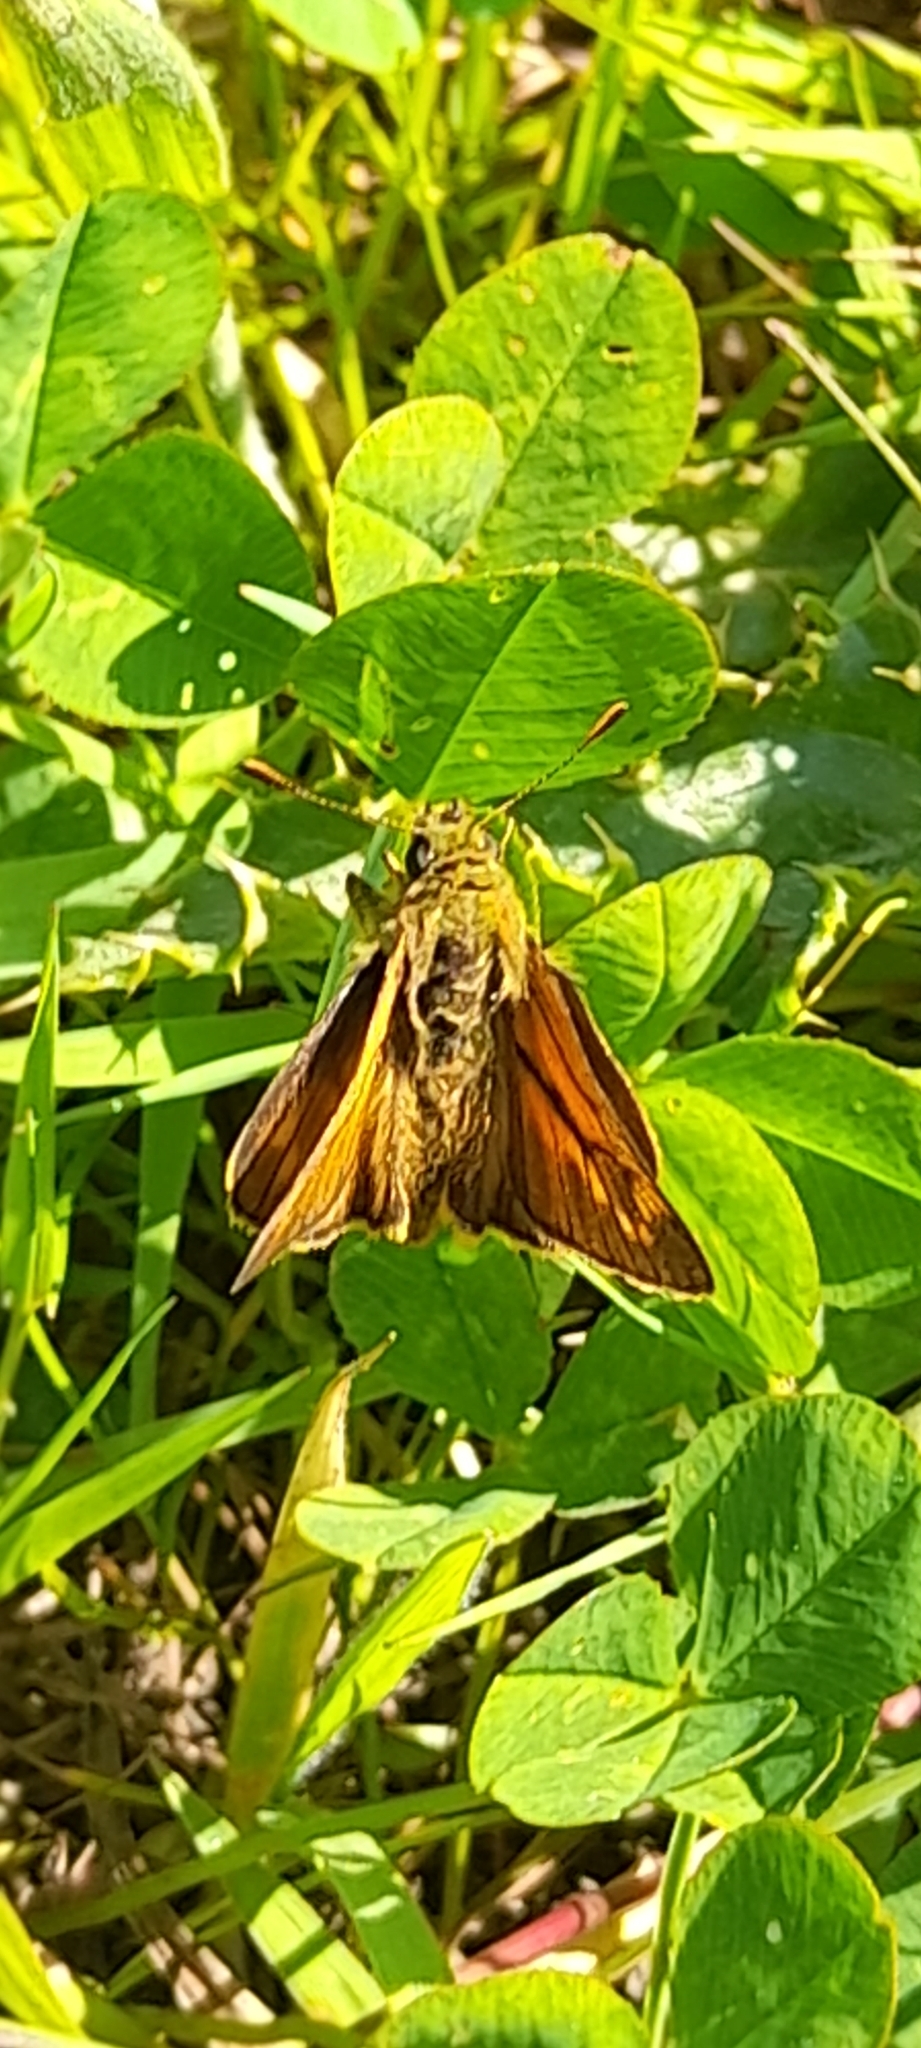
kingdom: Animalia
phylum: Arthropoda
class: Insecta
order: Lepidoptera
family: Hesperiidae
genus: Ochlodes
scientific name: Ochlodes venata
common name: Large skipper
